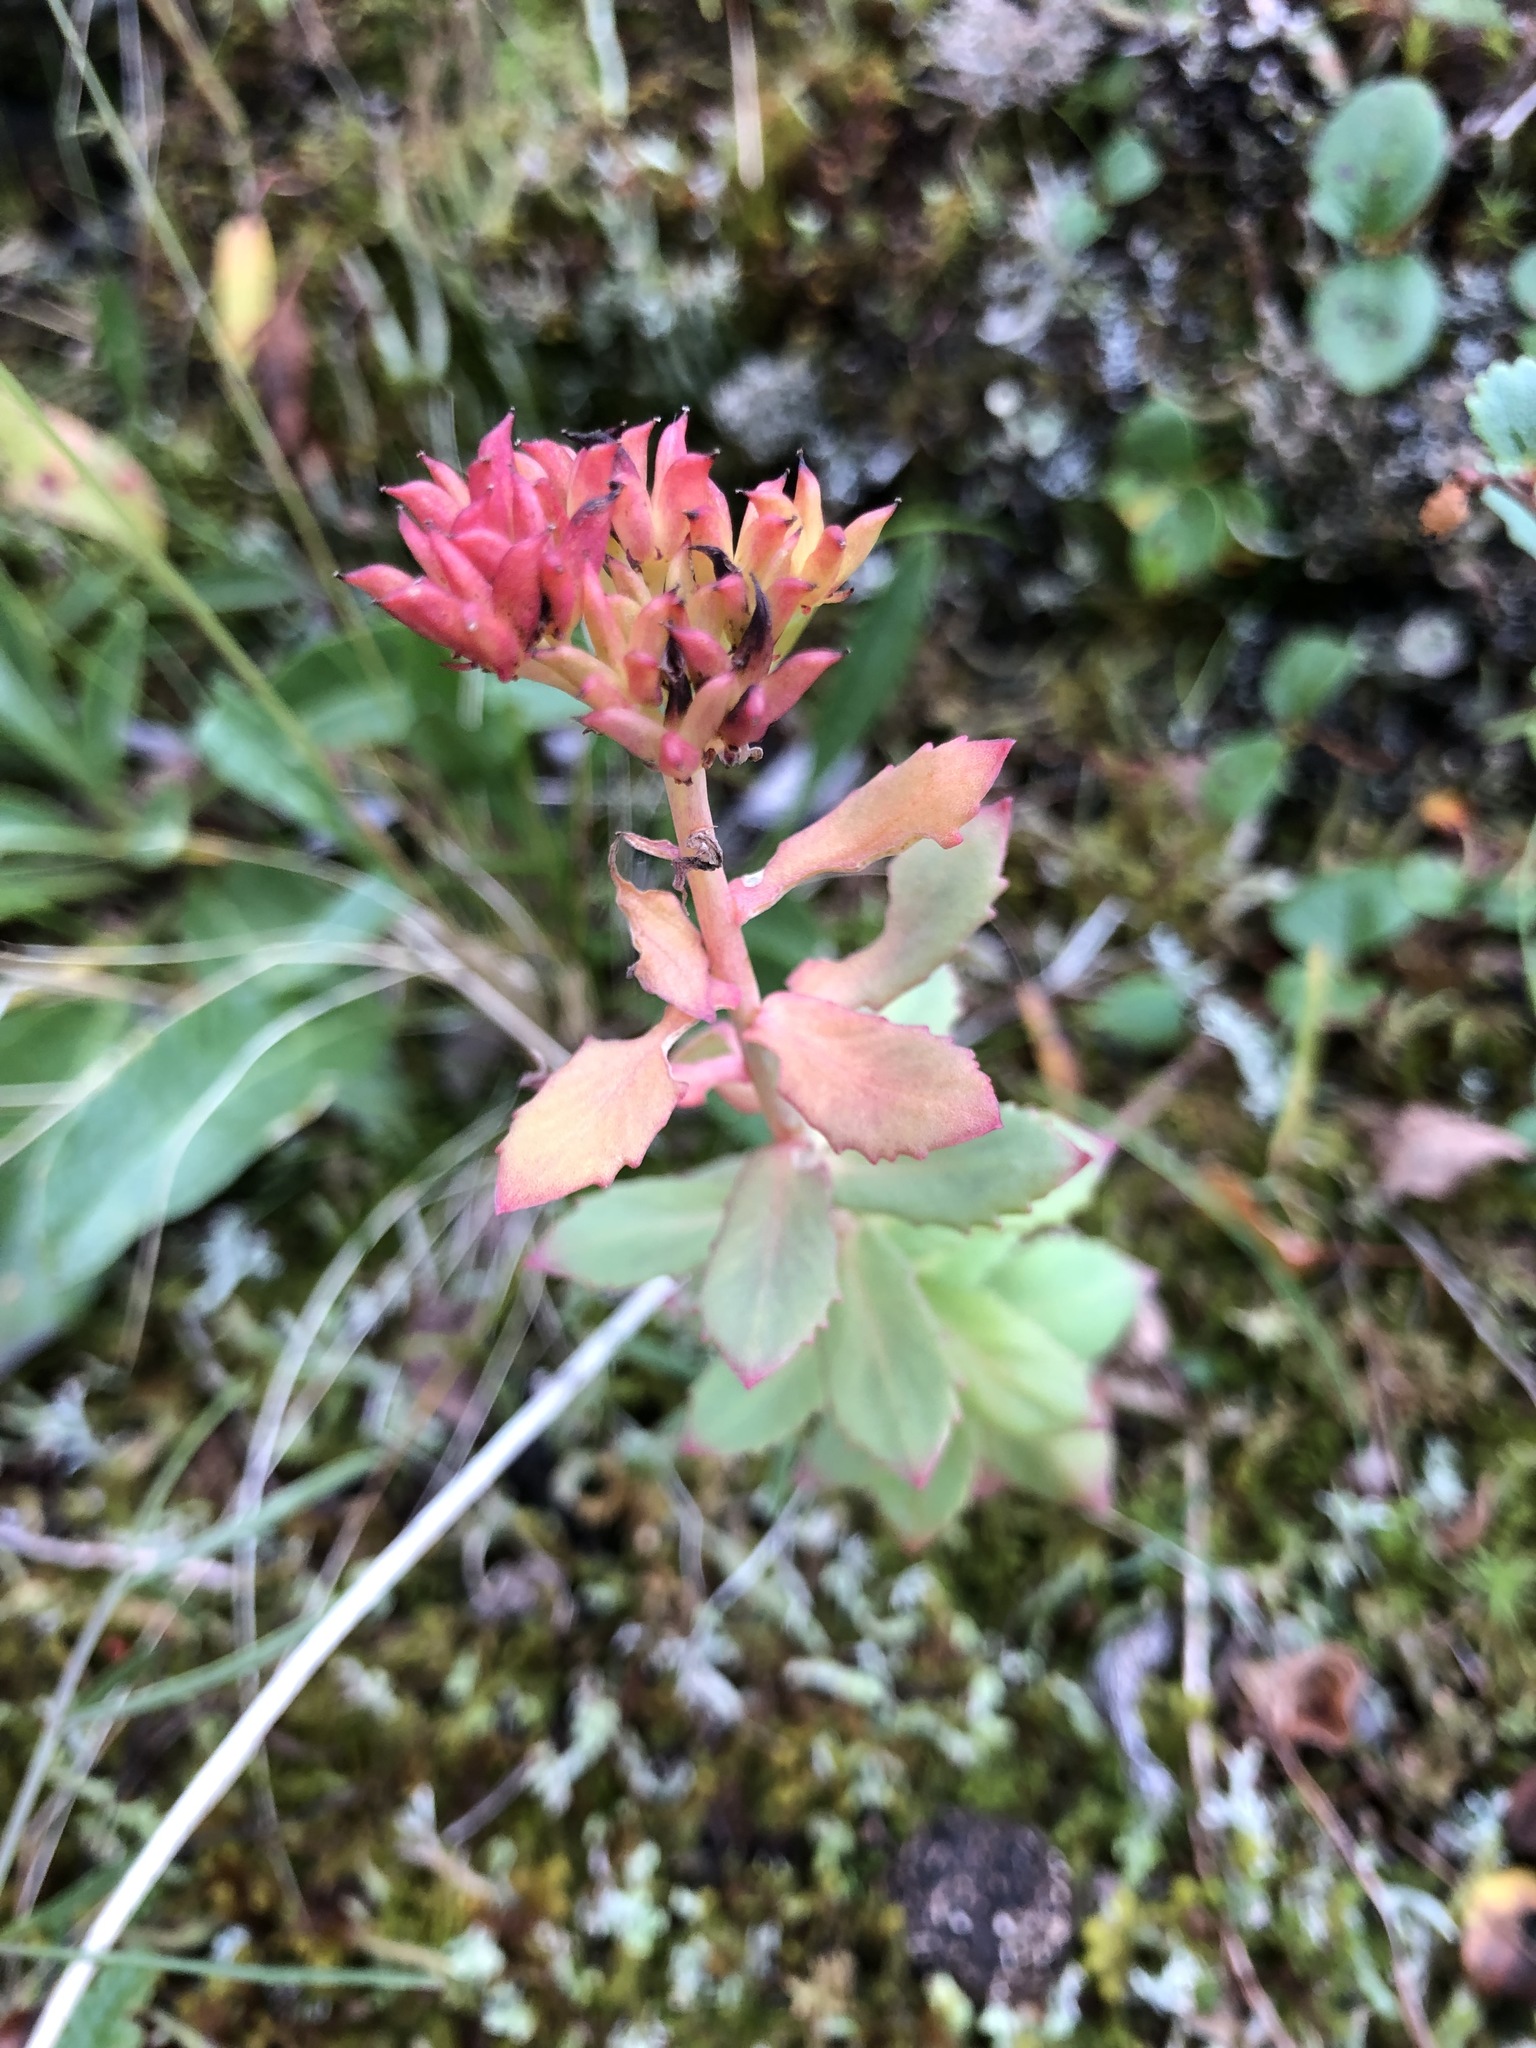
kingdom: Plantae
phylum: Tracheophyta
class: Magnoliopsida
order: Saxifragales
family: Crassulaceae
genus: Rhodiola
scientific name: Rhodiola rosea
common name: Roseroot
